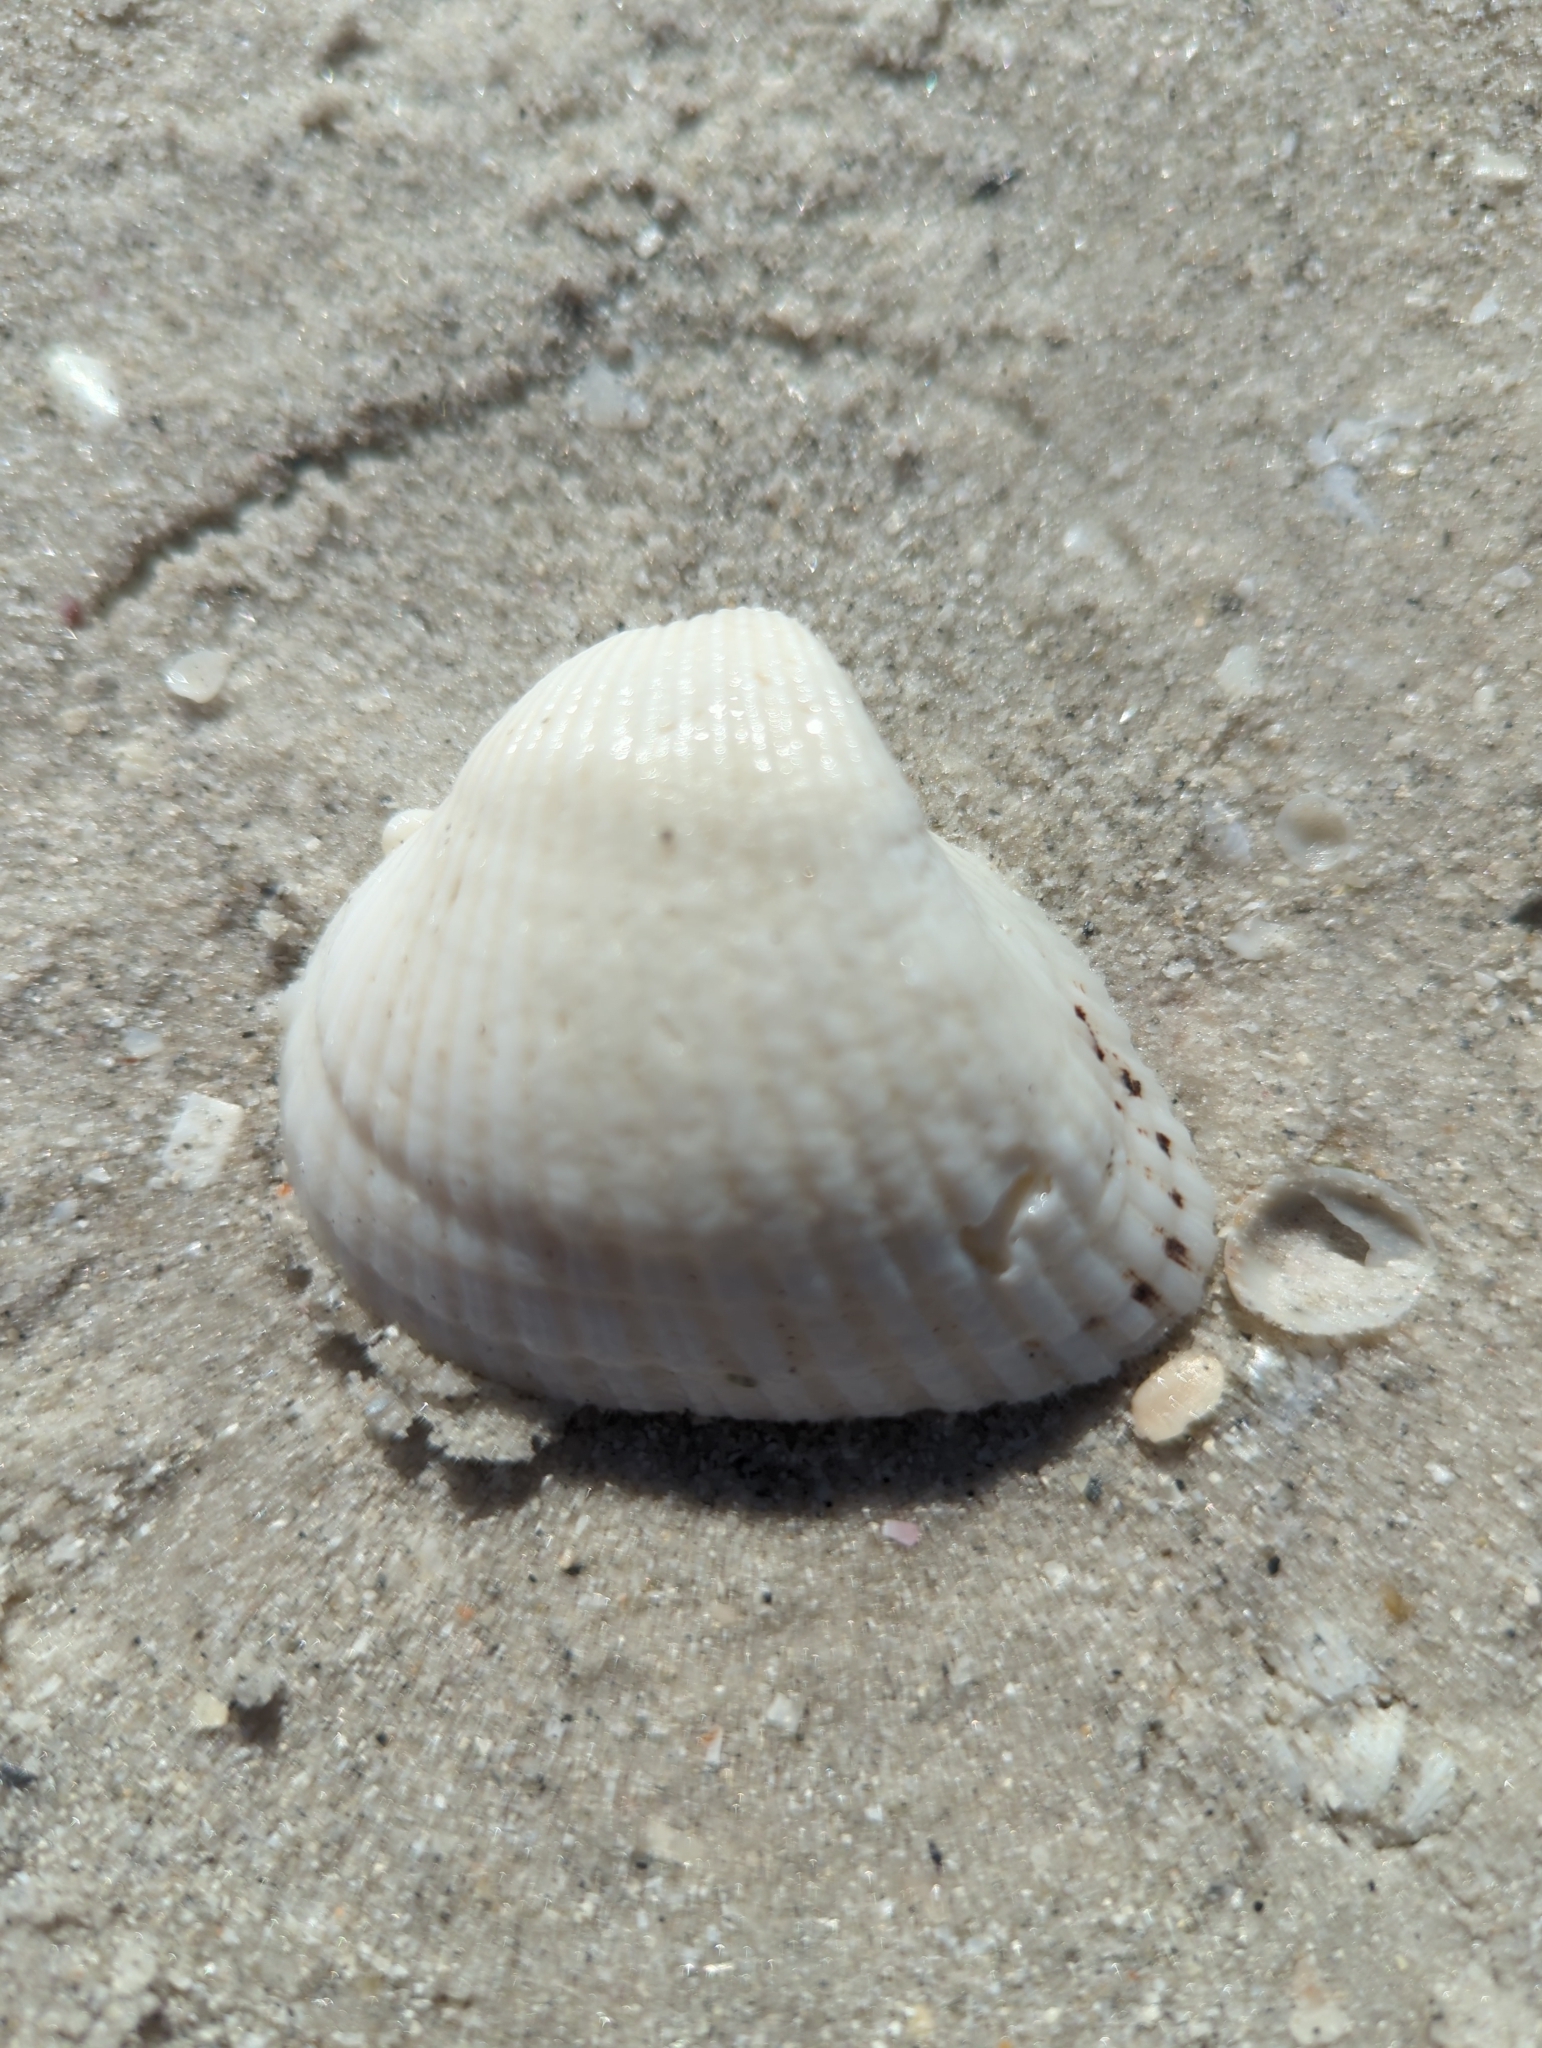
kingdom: Animalia
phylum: Mollusca
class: Bivalvia
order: Arcida
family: Noetiidae
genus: Noetia
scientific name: Noetia ponderosa
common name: Ponderous ark
